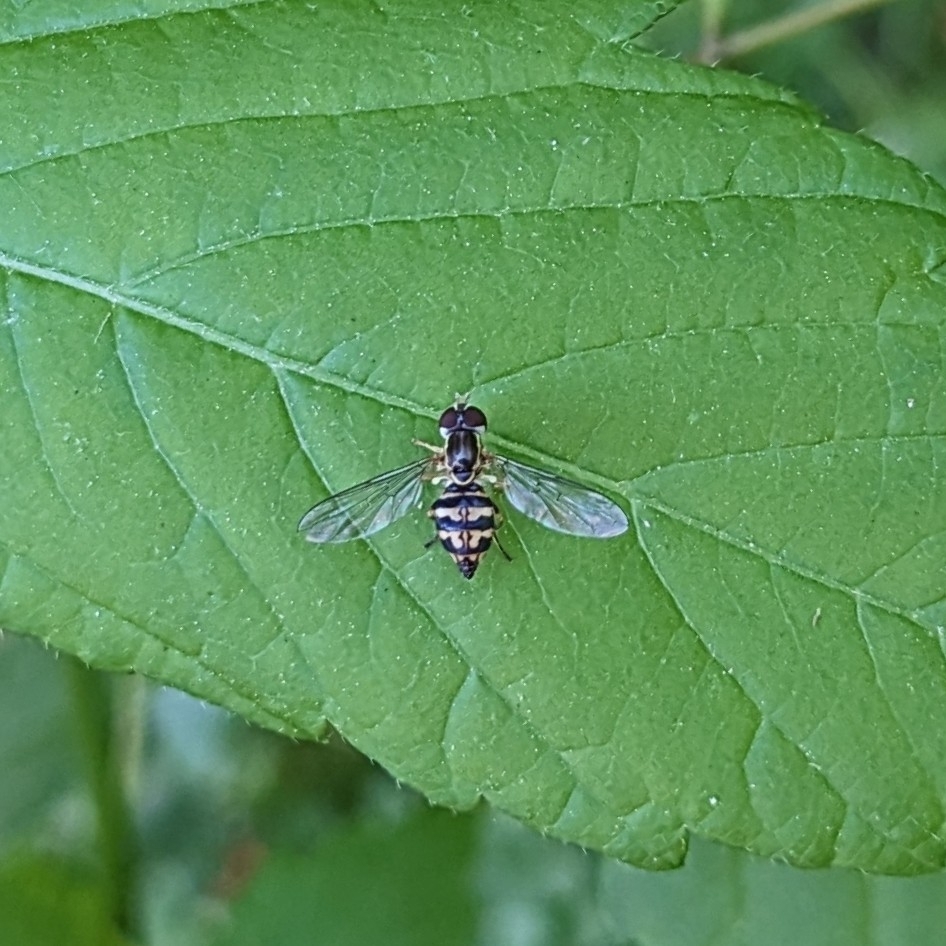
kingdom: Animalia
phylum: Arthropoda
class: Insecta
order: Diptera
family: Syrphidae
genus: Toxomerus
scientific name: Toxomerus geminatus
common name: Eastern calligrapher
